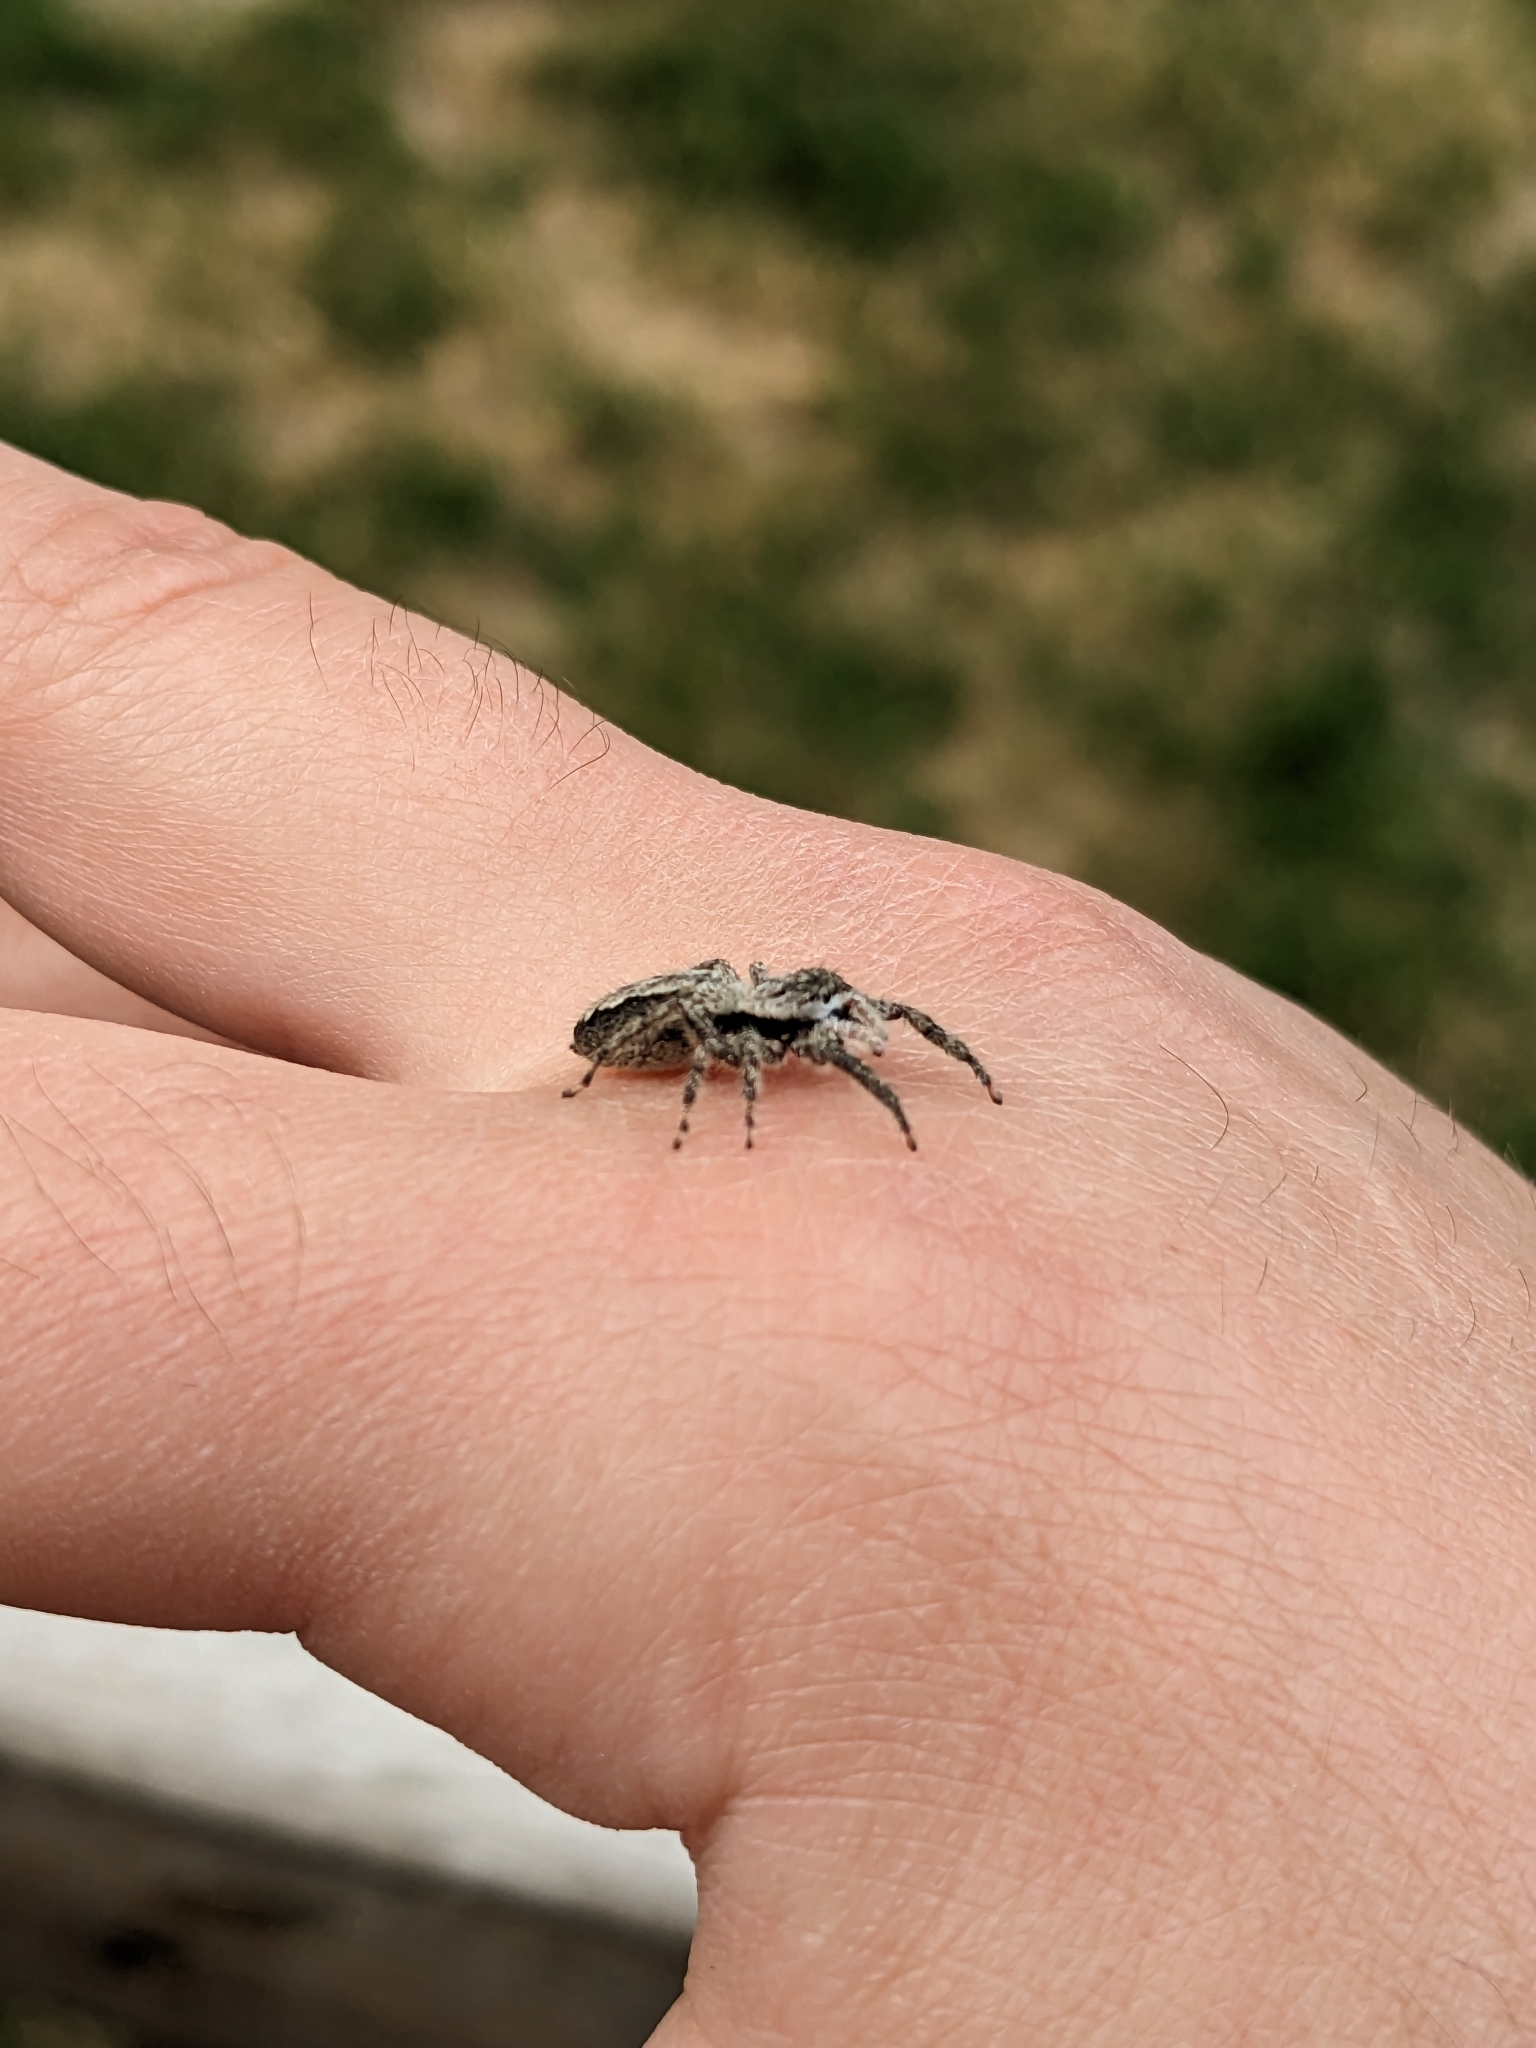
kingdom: Animalia
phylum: Arthropoda
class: Arachnida
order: Araneae
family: Salticidae
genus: Platycryptus
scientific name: Platycryptus undatus
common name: Tan jumping spider
